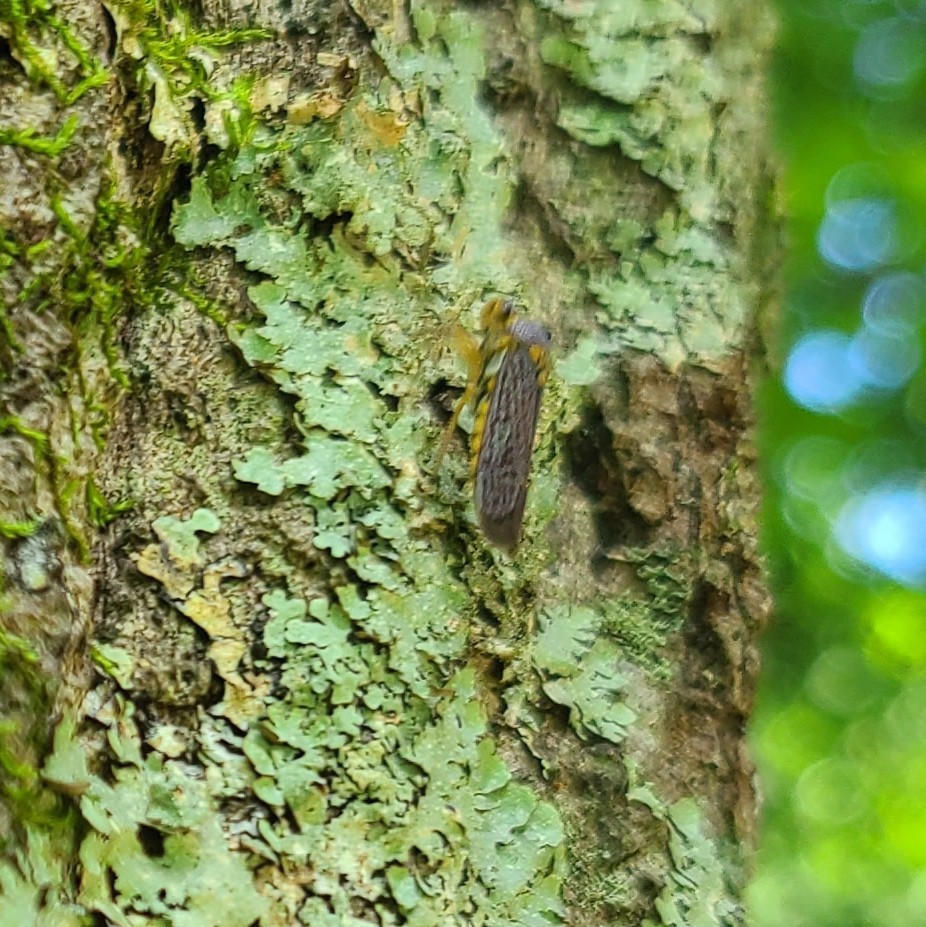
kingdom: Animalia
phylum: Arthropoda
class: Insecta
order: Hemiptera
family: Cicadellidae
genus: Oncometopia
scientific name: Oncometopia orbona
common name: Broad-headed sharpshooter
